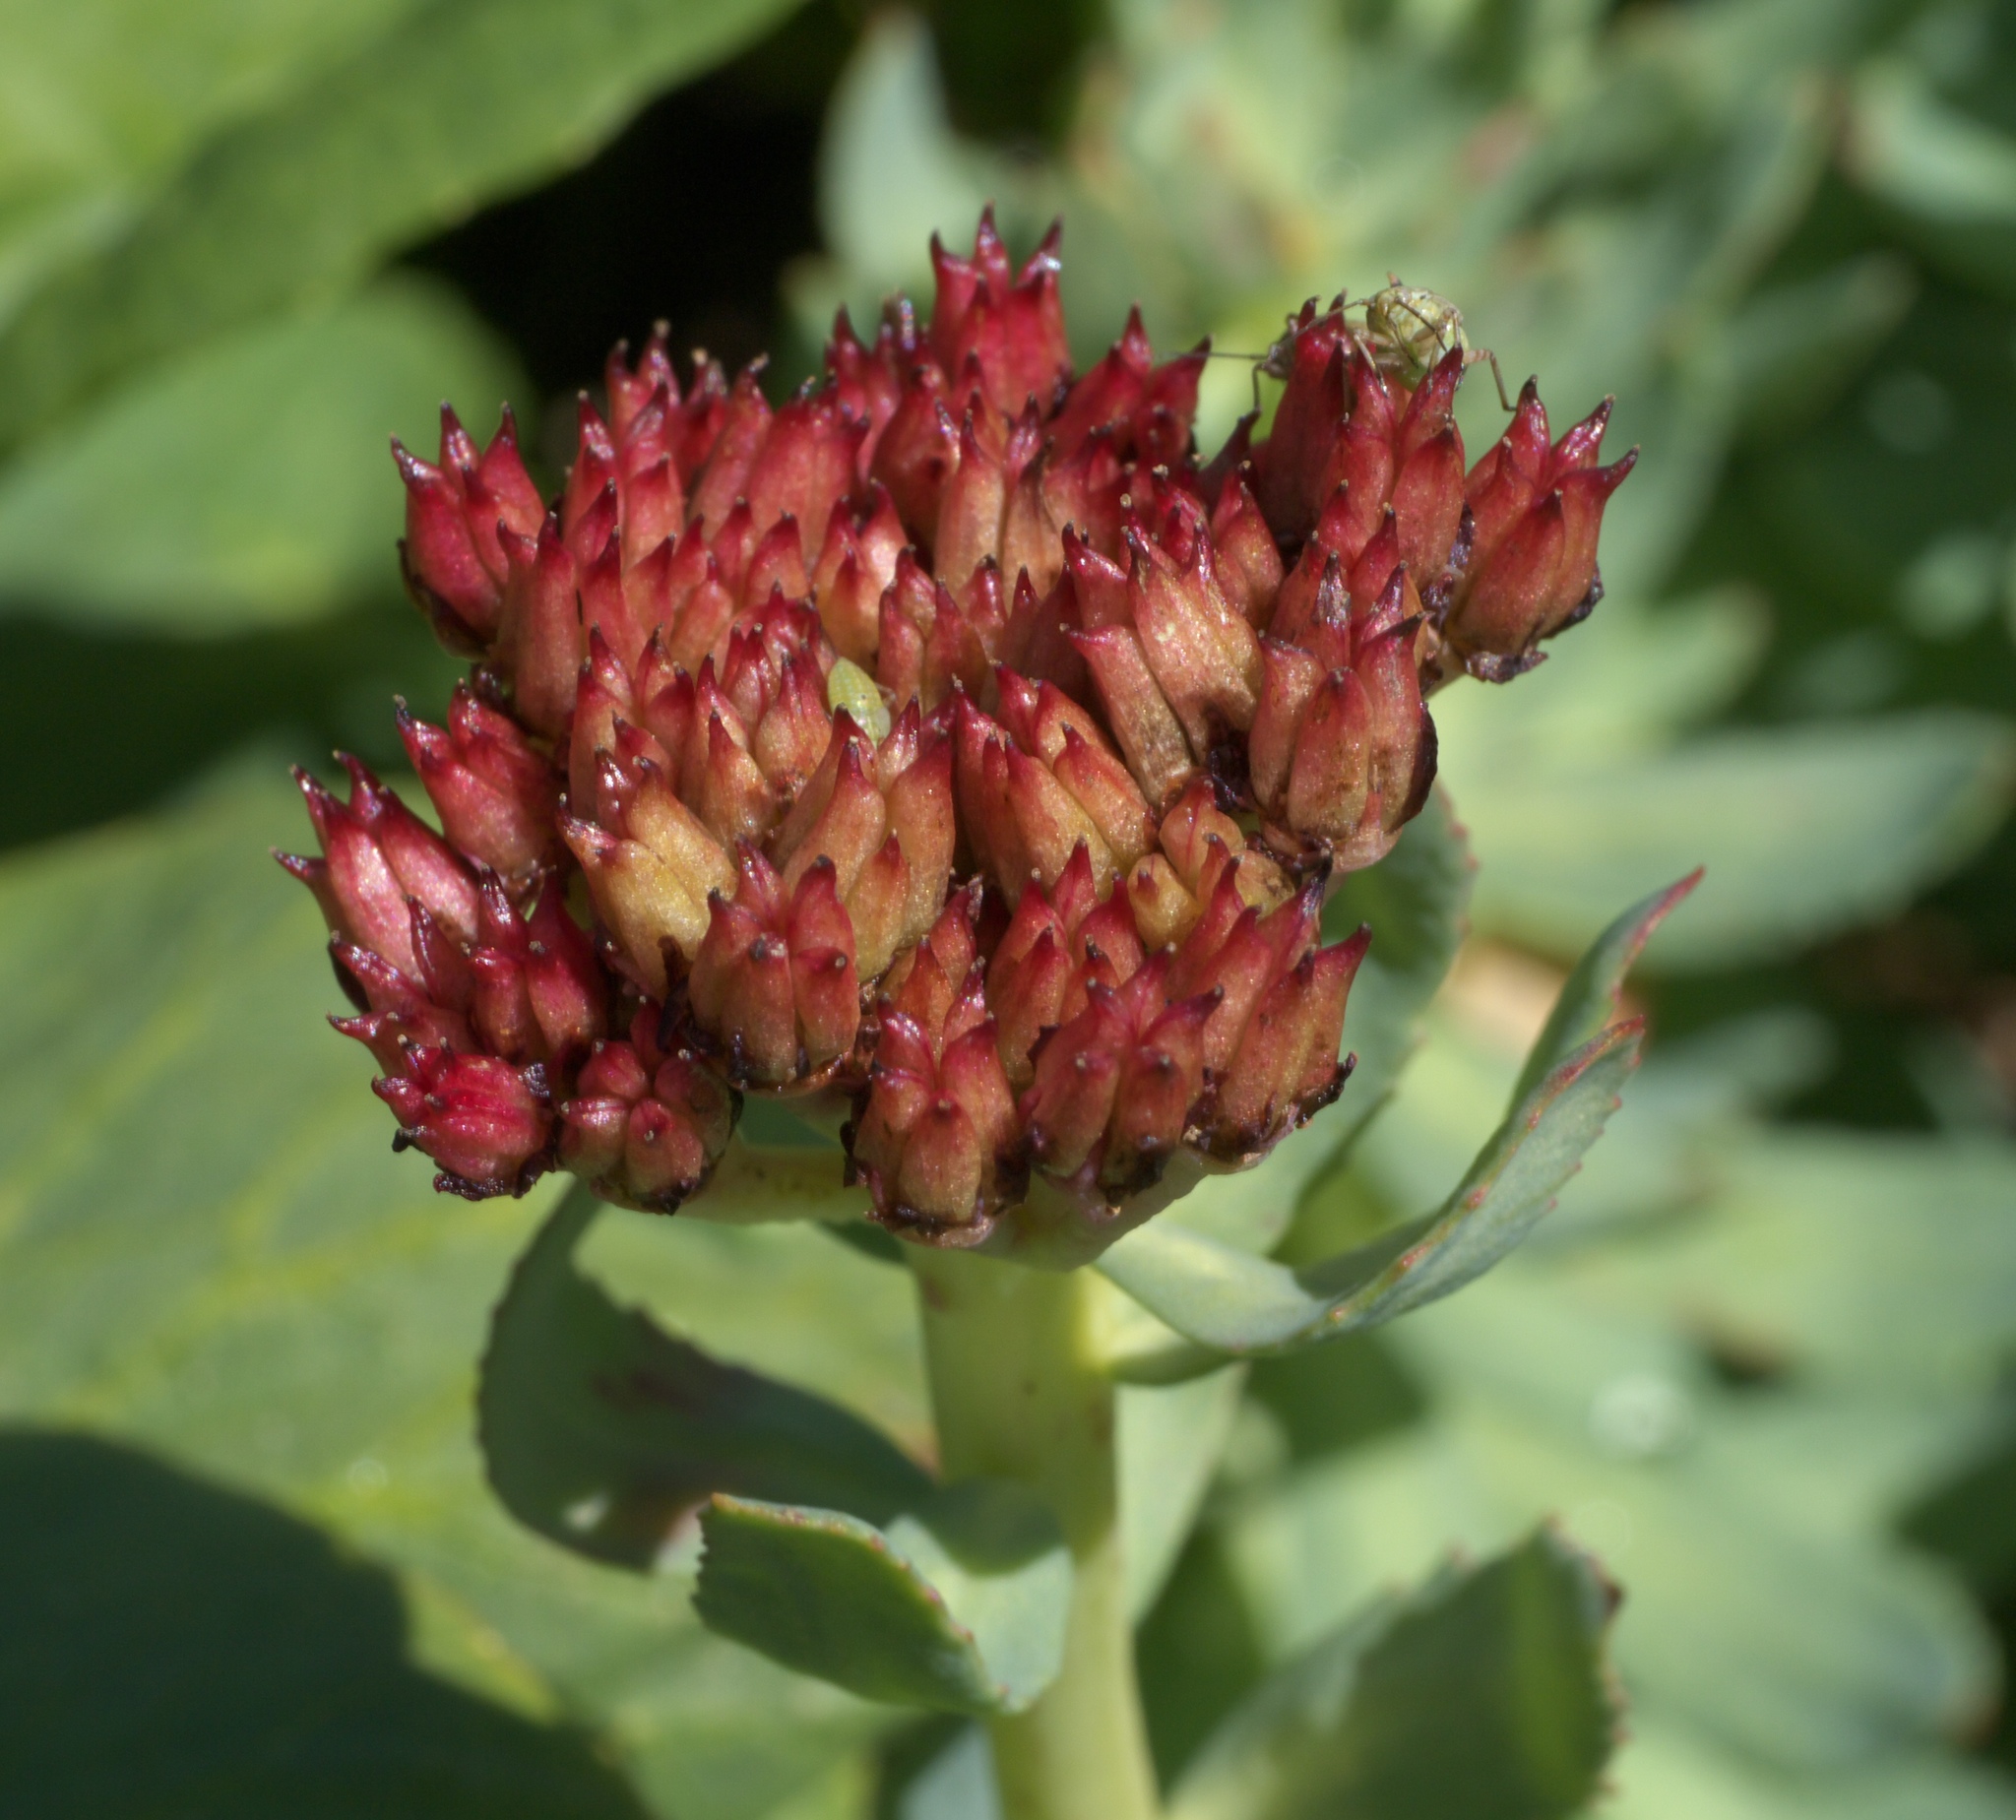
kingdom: Plantae
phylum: Tracheophyta
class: Magnoliopsida
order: Saxifragales
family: Crassulaceae
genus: Rhodiola
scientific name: Rhodiola integrifolia
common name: Western roseroot
